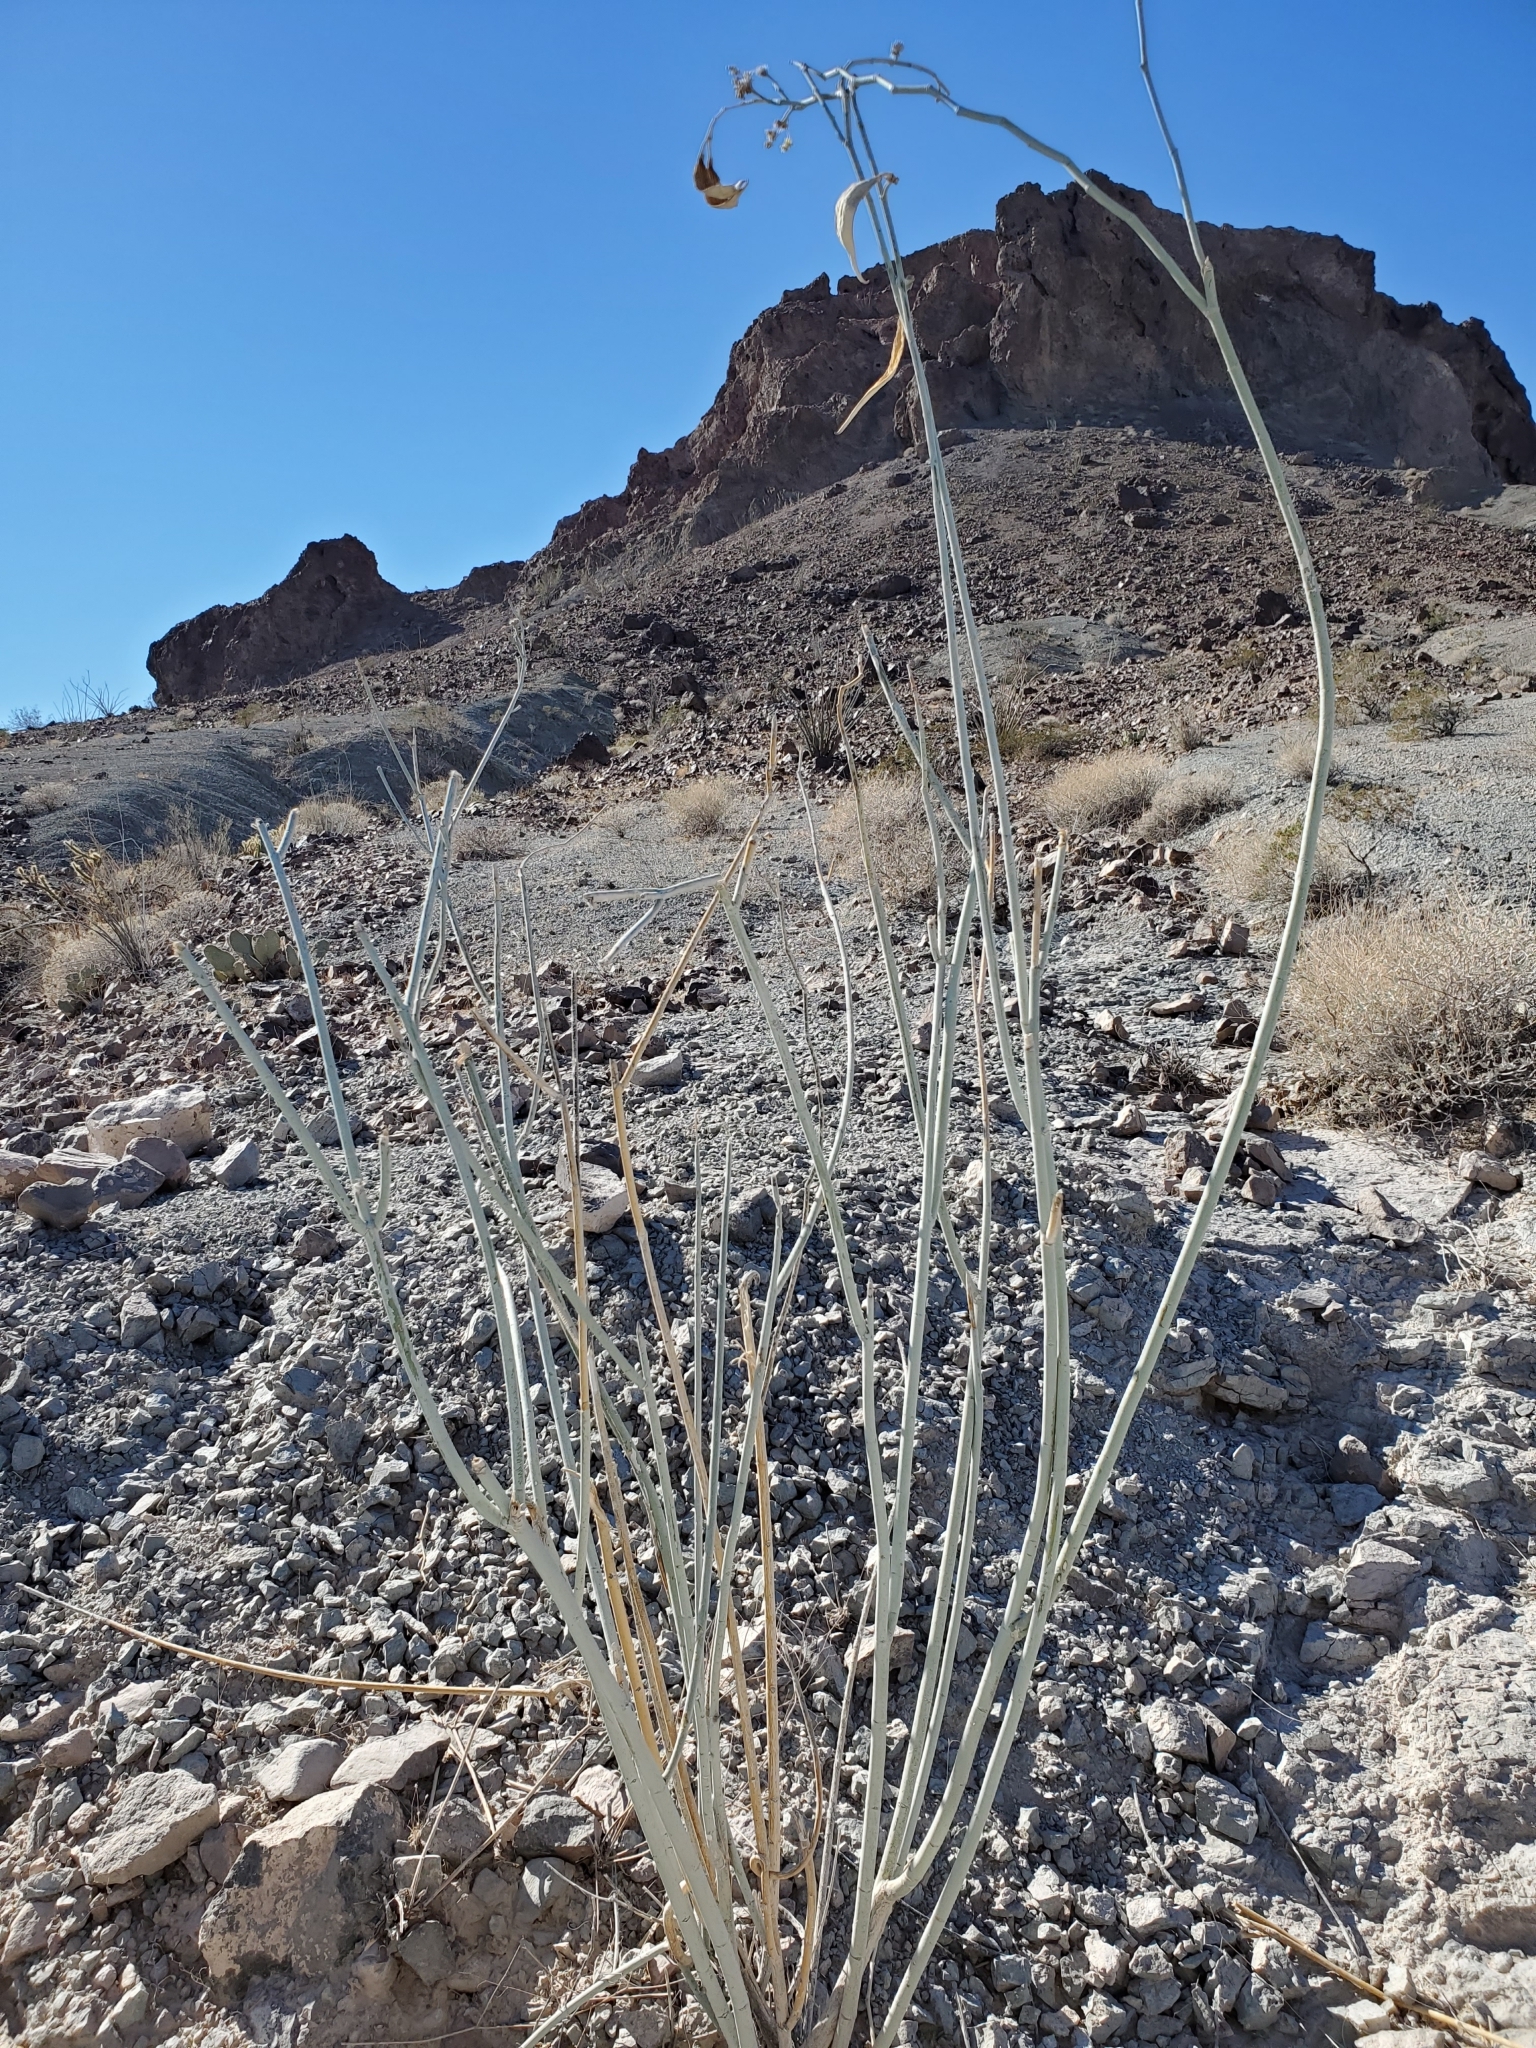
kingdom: Plantae
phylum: Tracheophyta
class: Magnoliopsida
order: Gentianales
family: Apocynaceae
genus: Asclepias
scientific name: Asclepias albicans
